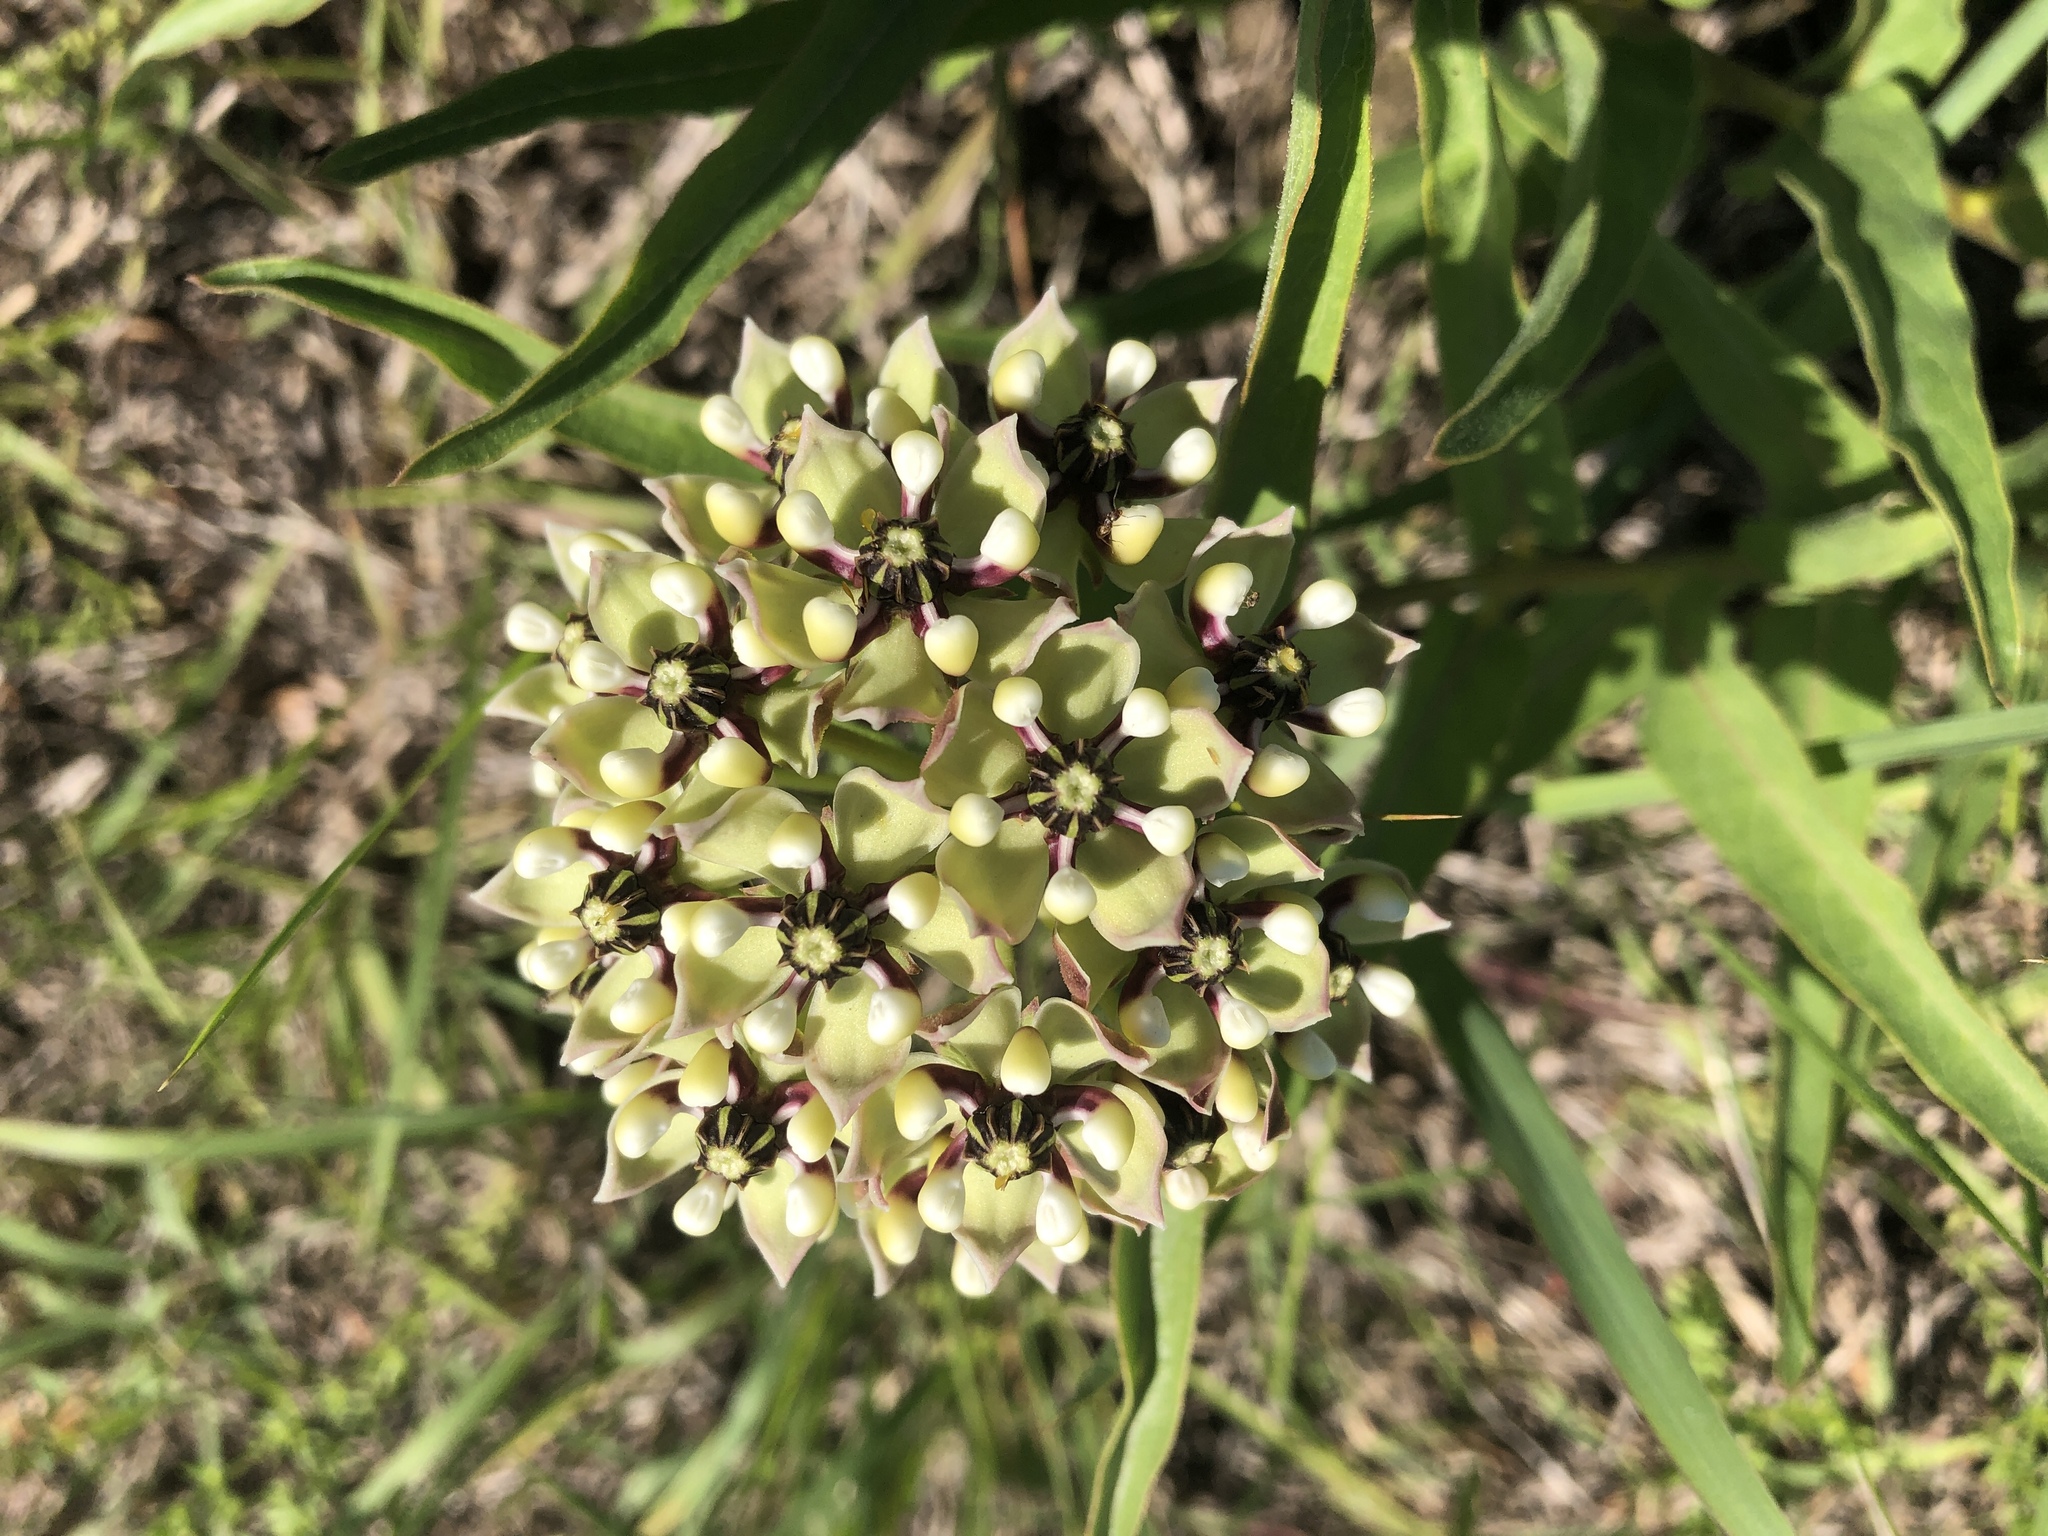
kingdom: Plantae
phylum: Tracheophyta
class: Magnoliopsida
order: Gentianales
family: Apocynaceae
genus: Asclepias
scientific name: Asclepias asperula
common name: Antelope horns
